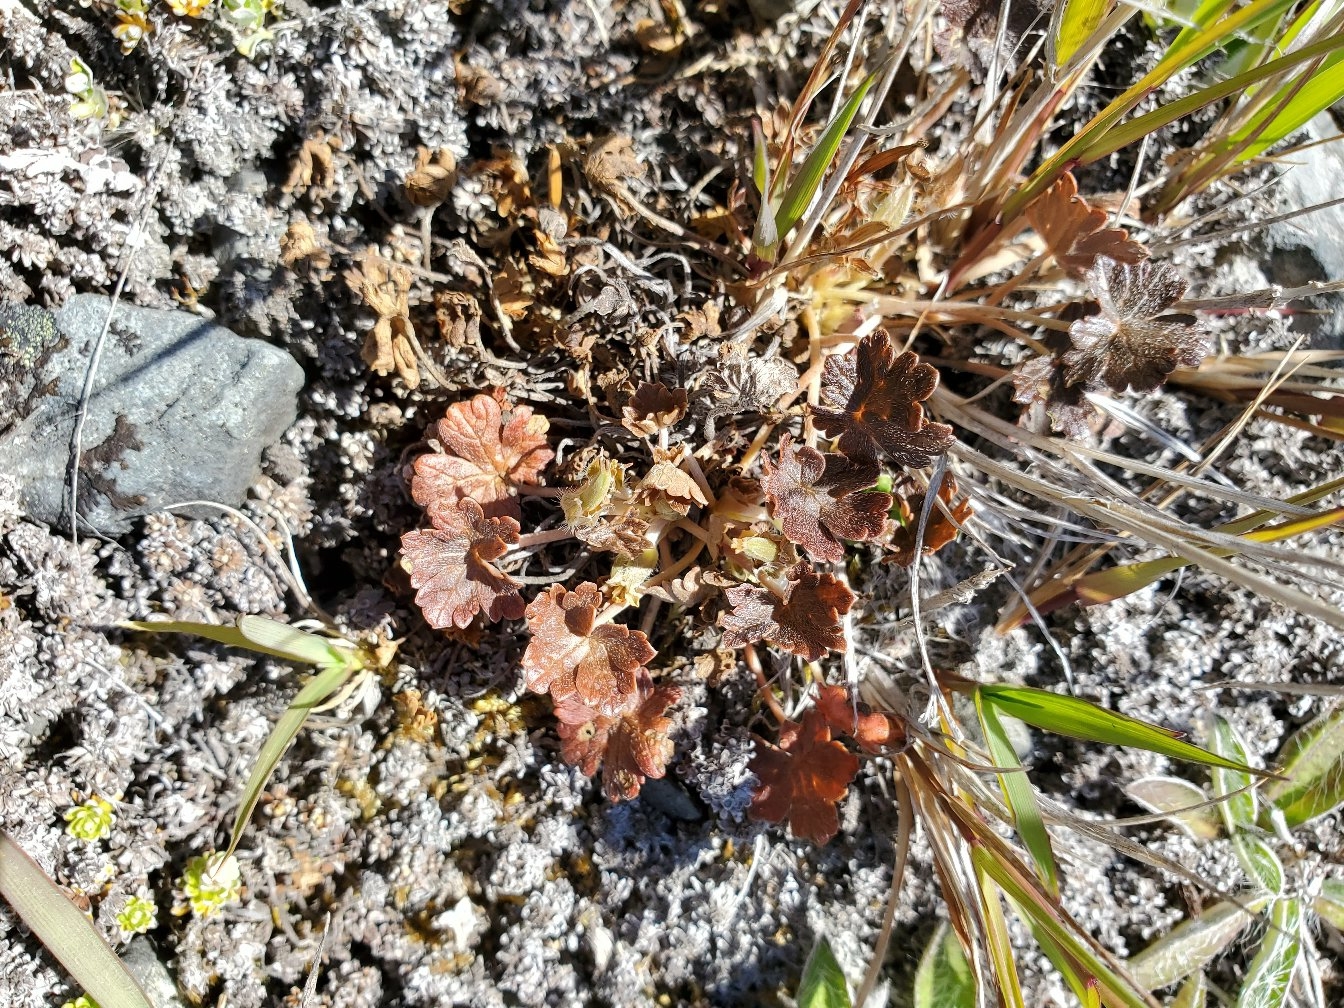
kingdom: Plantae
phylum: Tracheophyta
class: Magnoliopsida
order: Geraniales
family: Geraniaceae
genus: Geranium
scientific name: Geranium brevicaule
